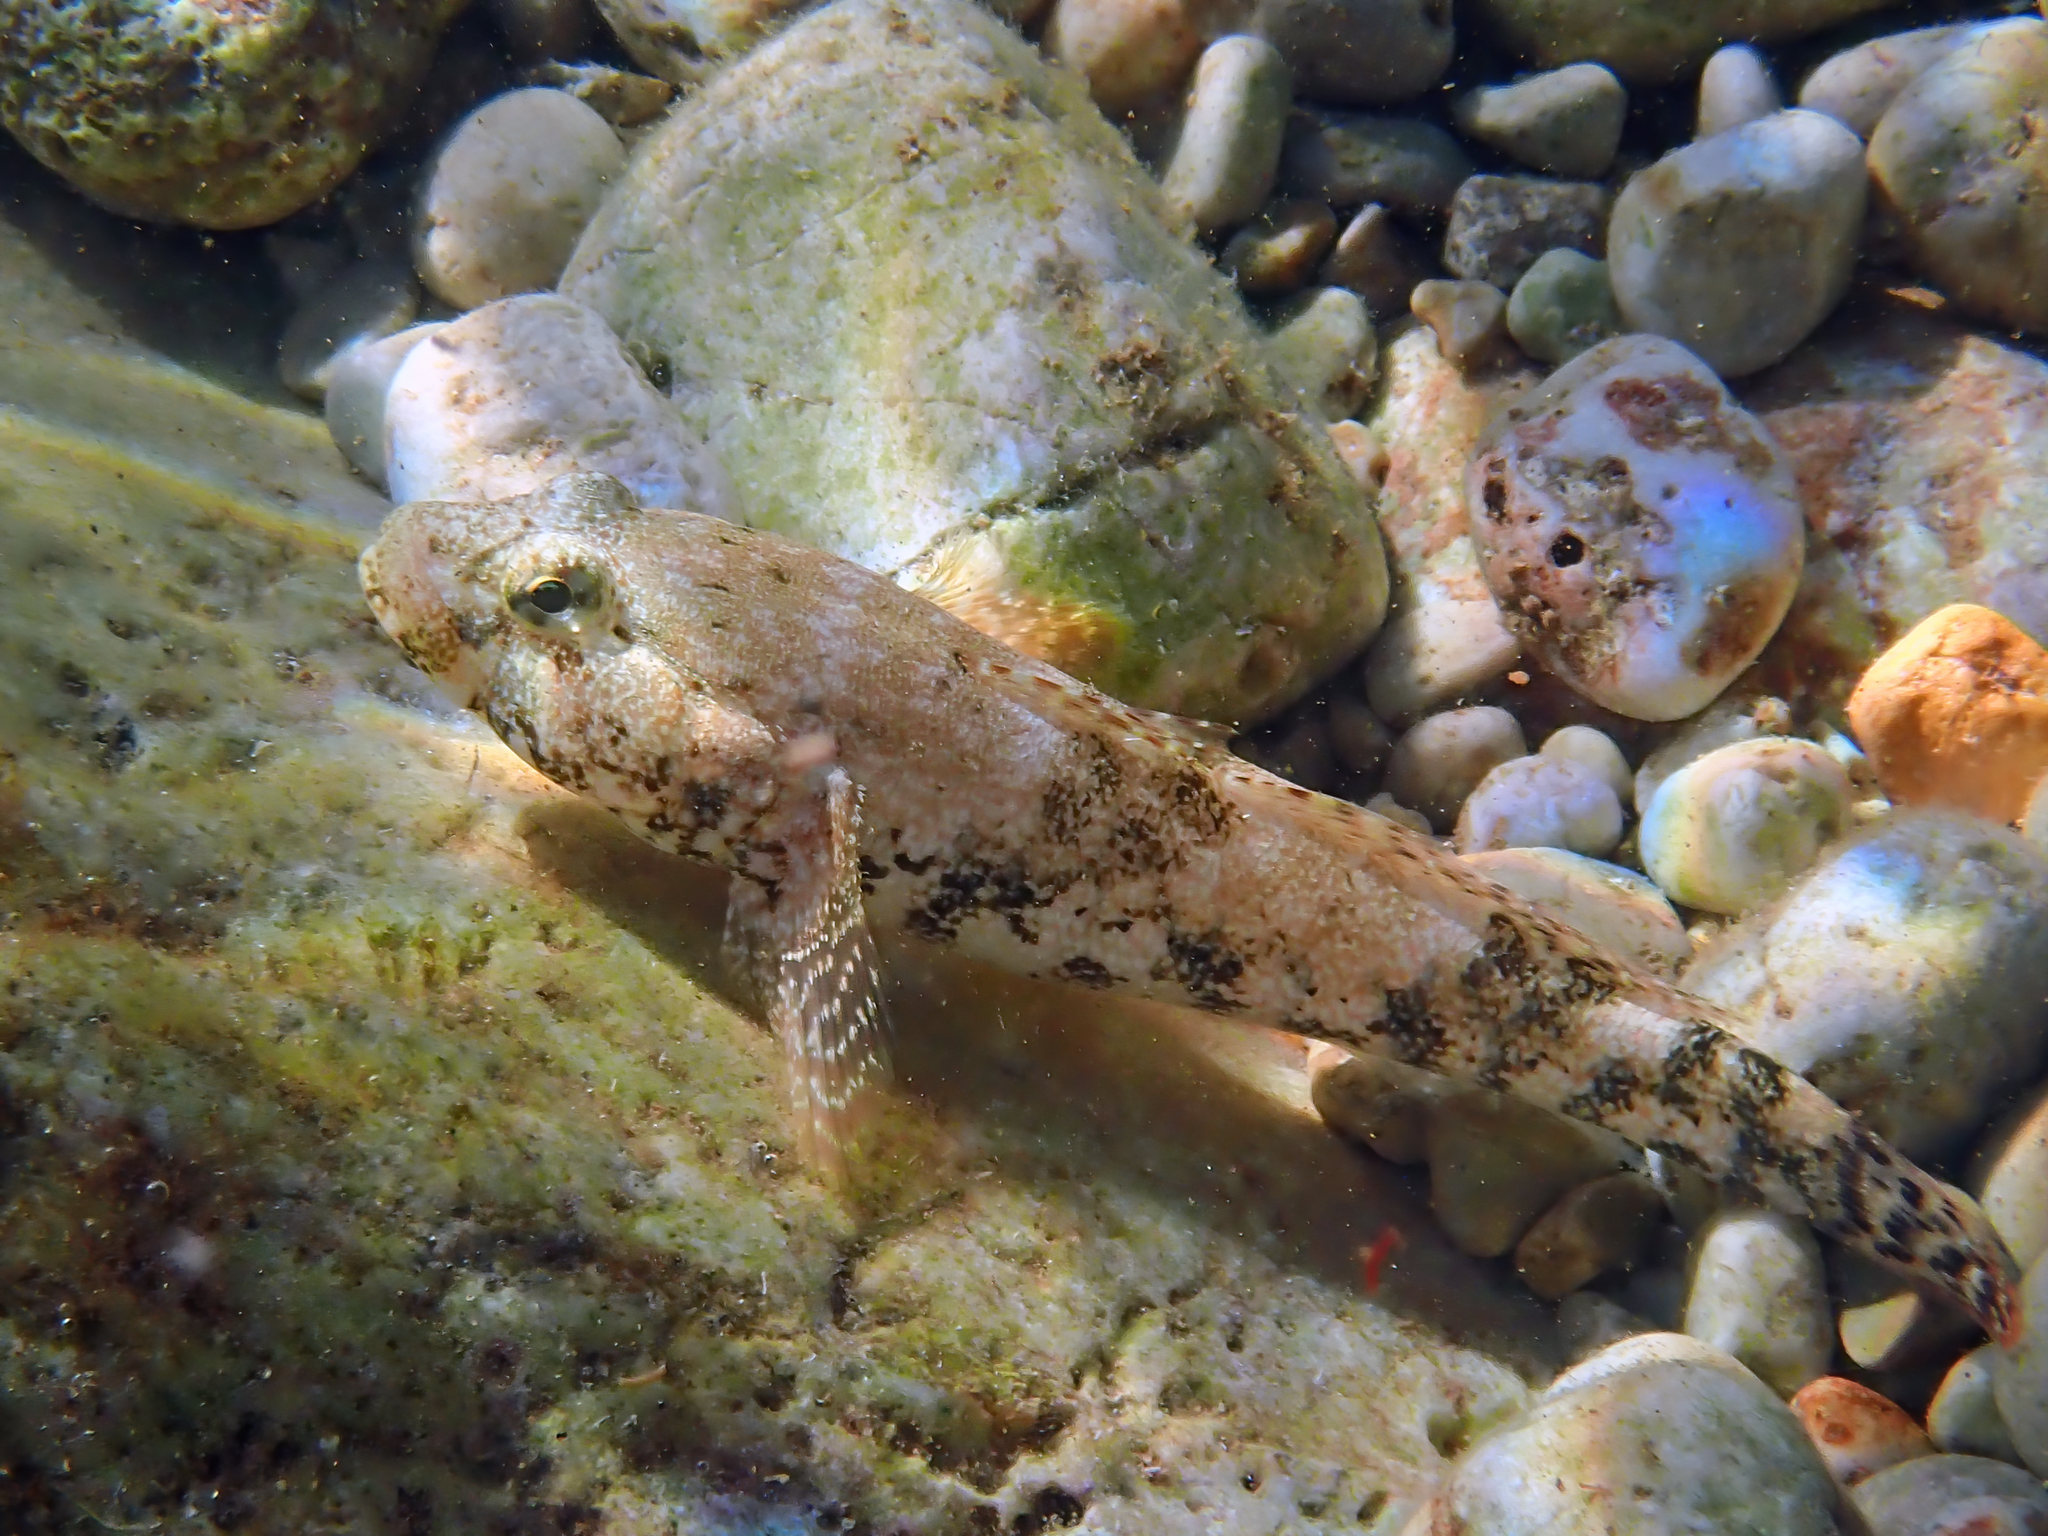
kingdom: Animalia
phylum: Chordata
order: Perciformes
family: Gobiidae
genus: Gobius
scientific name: Gobius cobitis
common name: Giant goby
